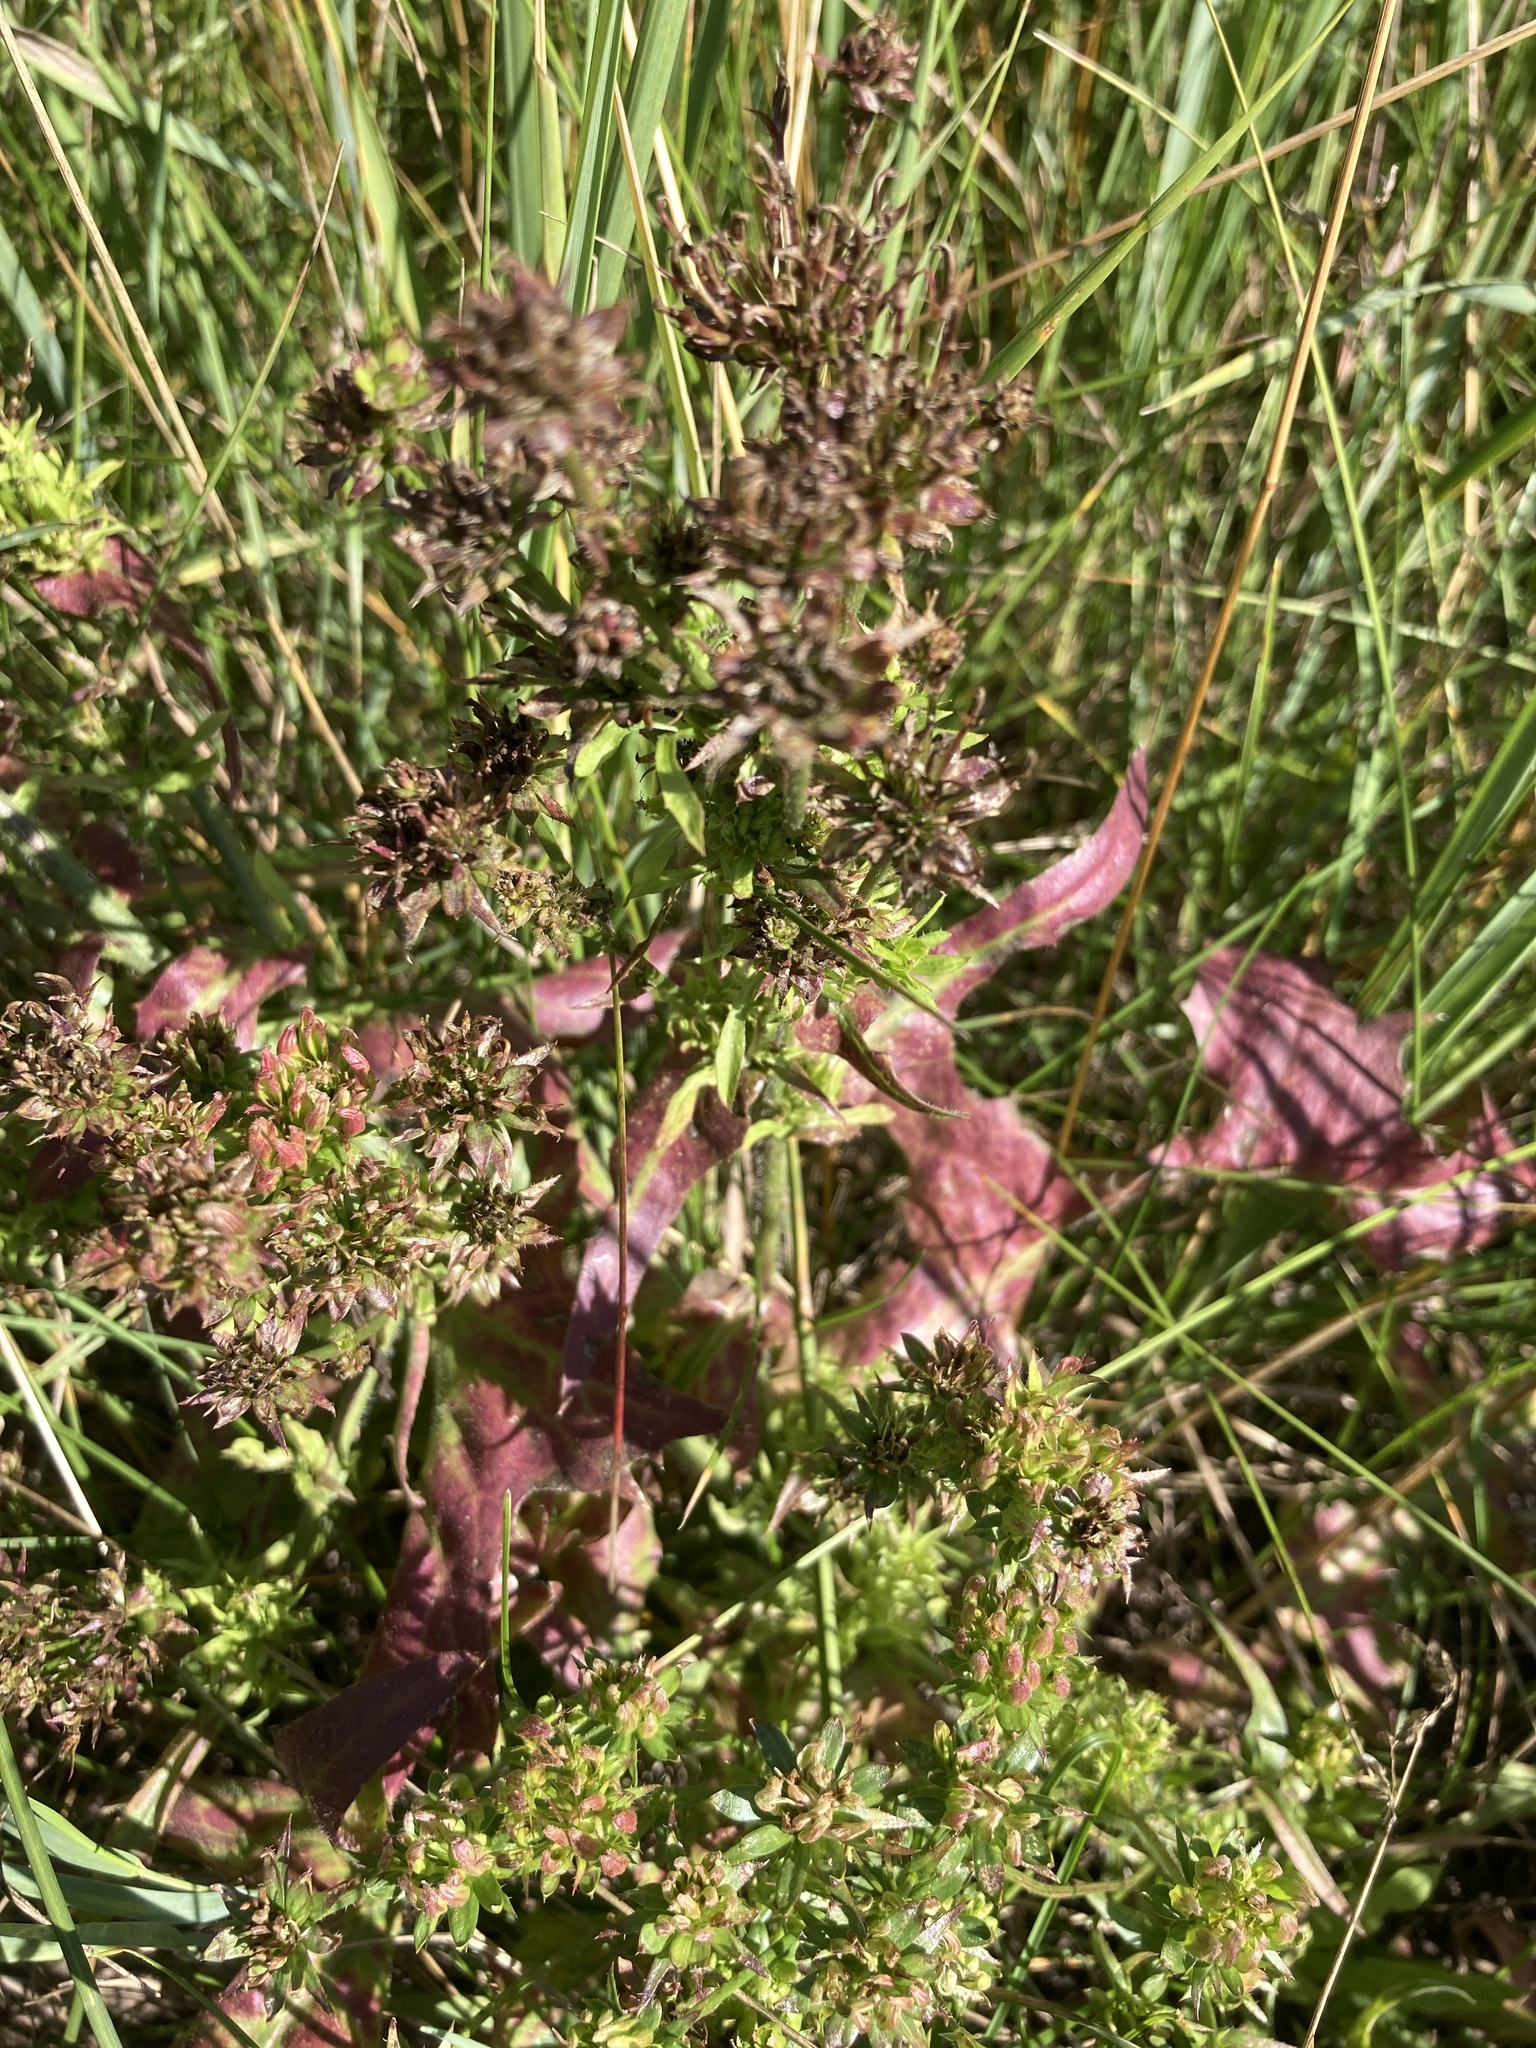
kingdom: Plantae
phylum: Tracheophyta
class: Magnoliopsida
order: Asterales
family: Asteraceae
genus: Cichorium
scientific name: Cichorium intybus
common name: Chicory
